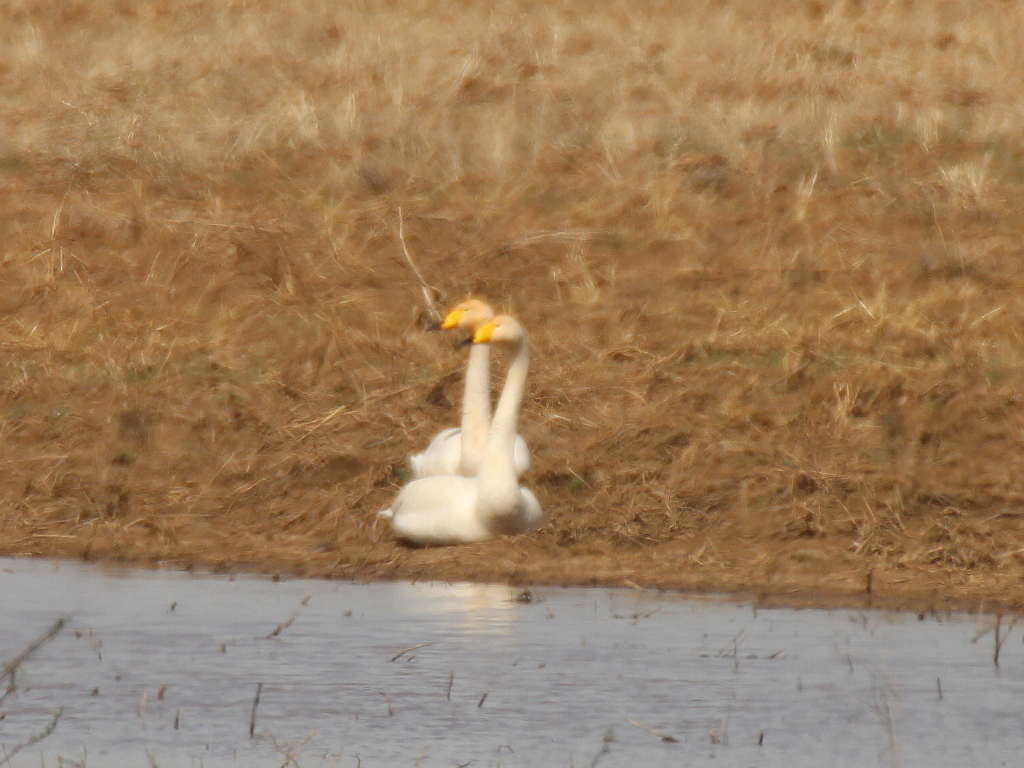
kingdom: Animalia
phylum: Chordata
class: Aves
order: Anseriformes
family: Anatidae
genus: Cygnus
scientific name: Cygnus cygnus
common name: Whooper swan
